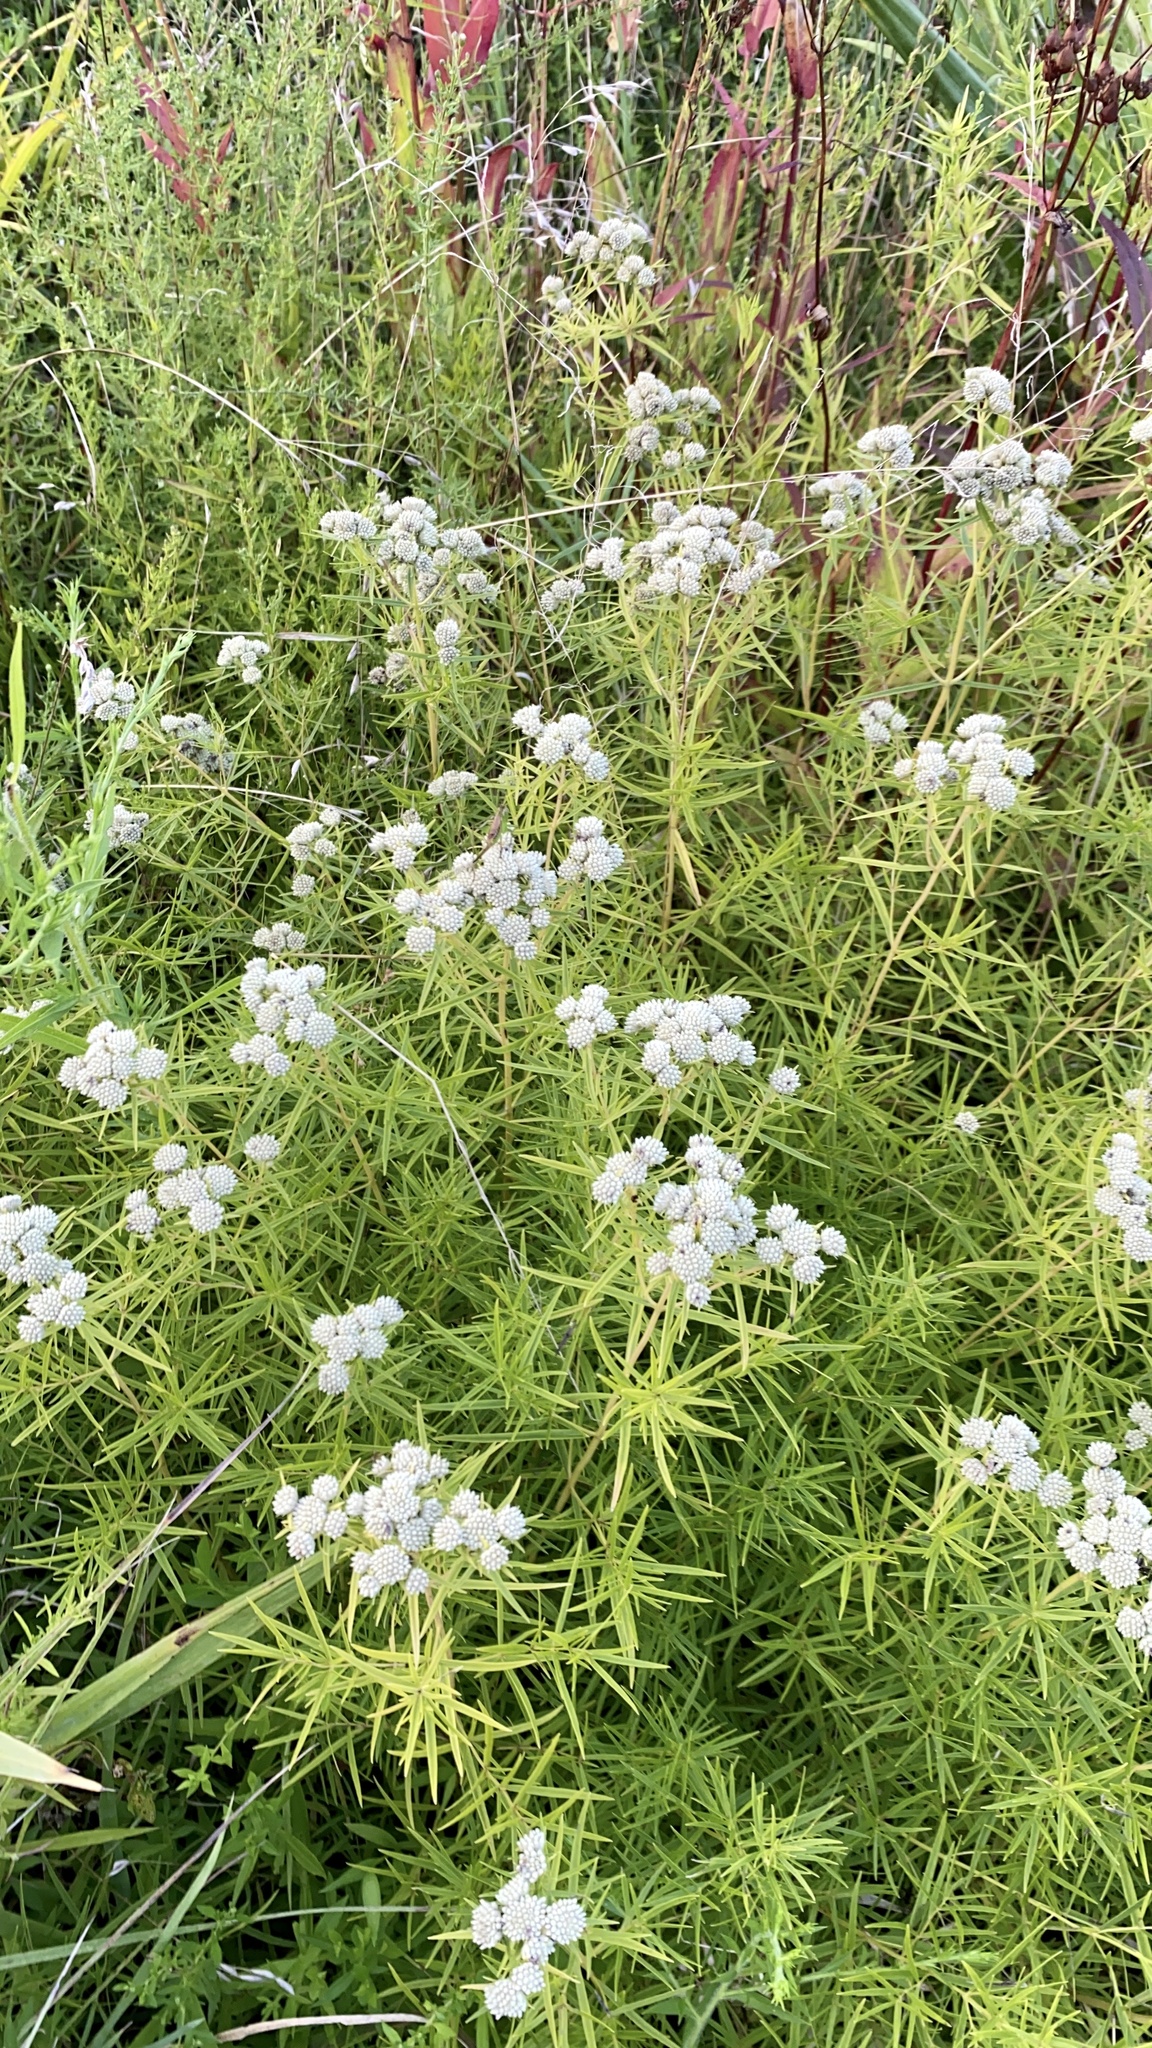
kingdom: Plantae
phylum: Tracheophyta
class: Magnoliopsida
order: Lamiales
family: Lamiaceae
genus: Pycnanthemum
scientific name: Pycnanthemum tenuifolium
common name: Narrow-leaf mountain-mint
